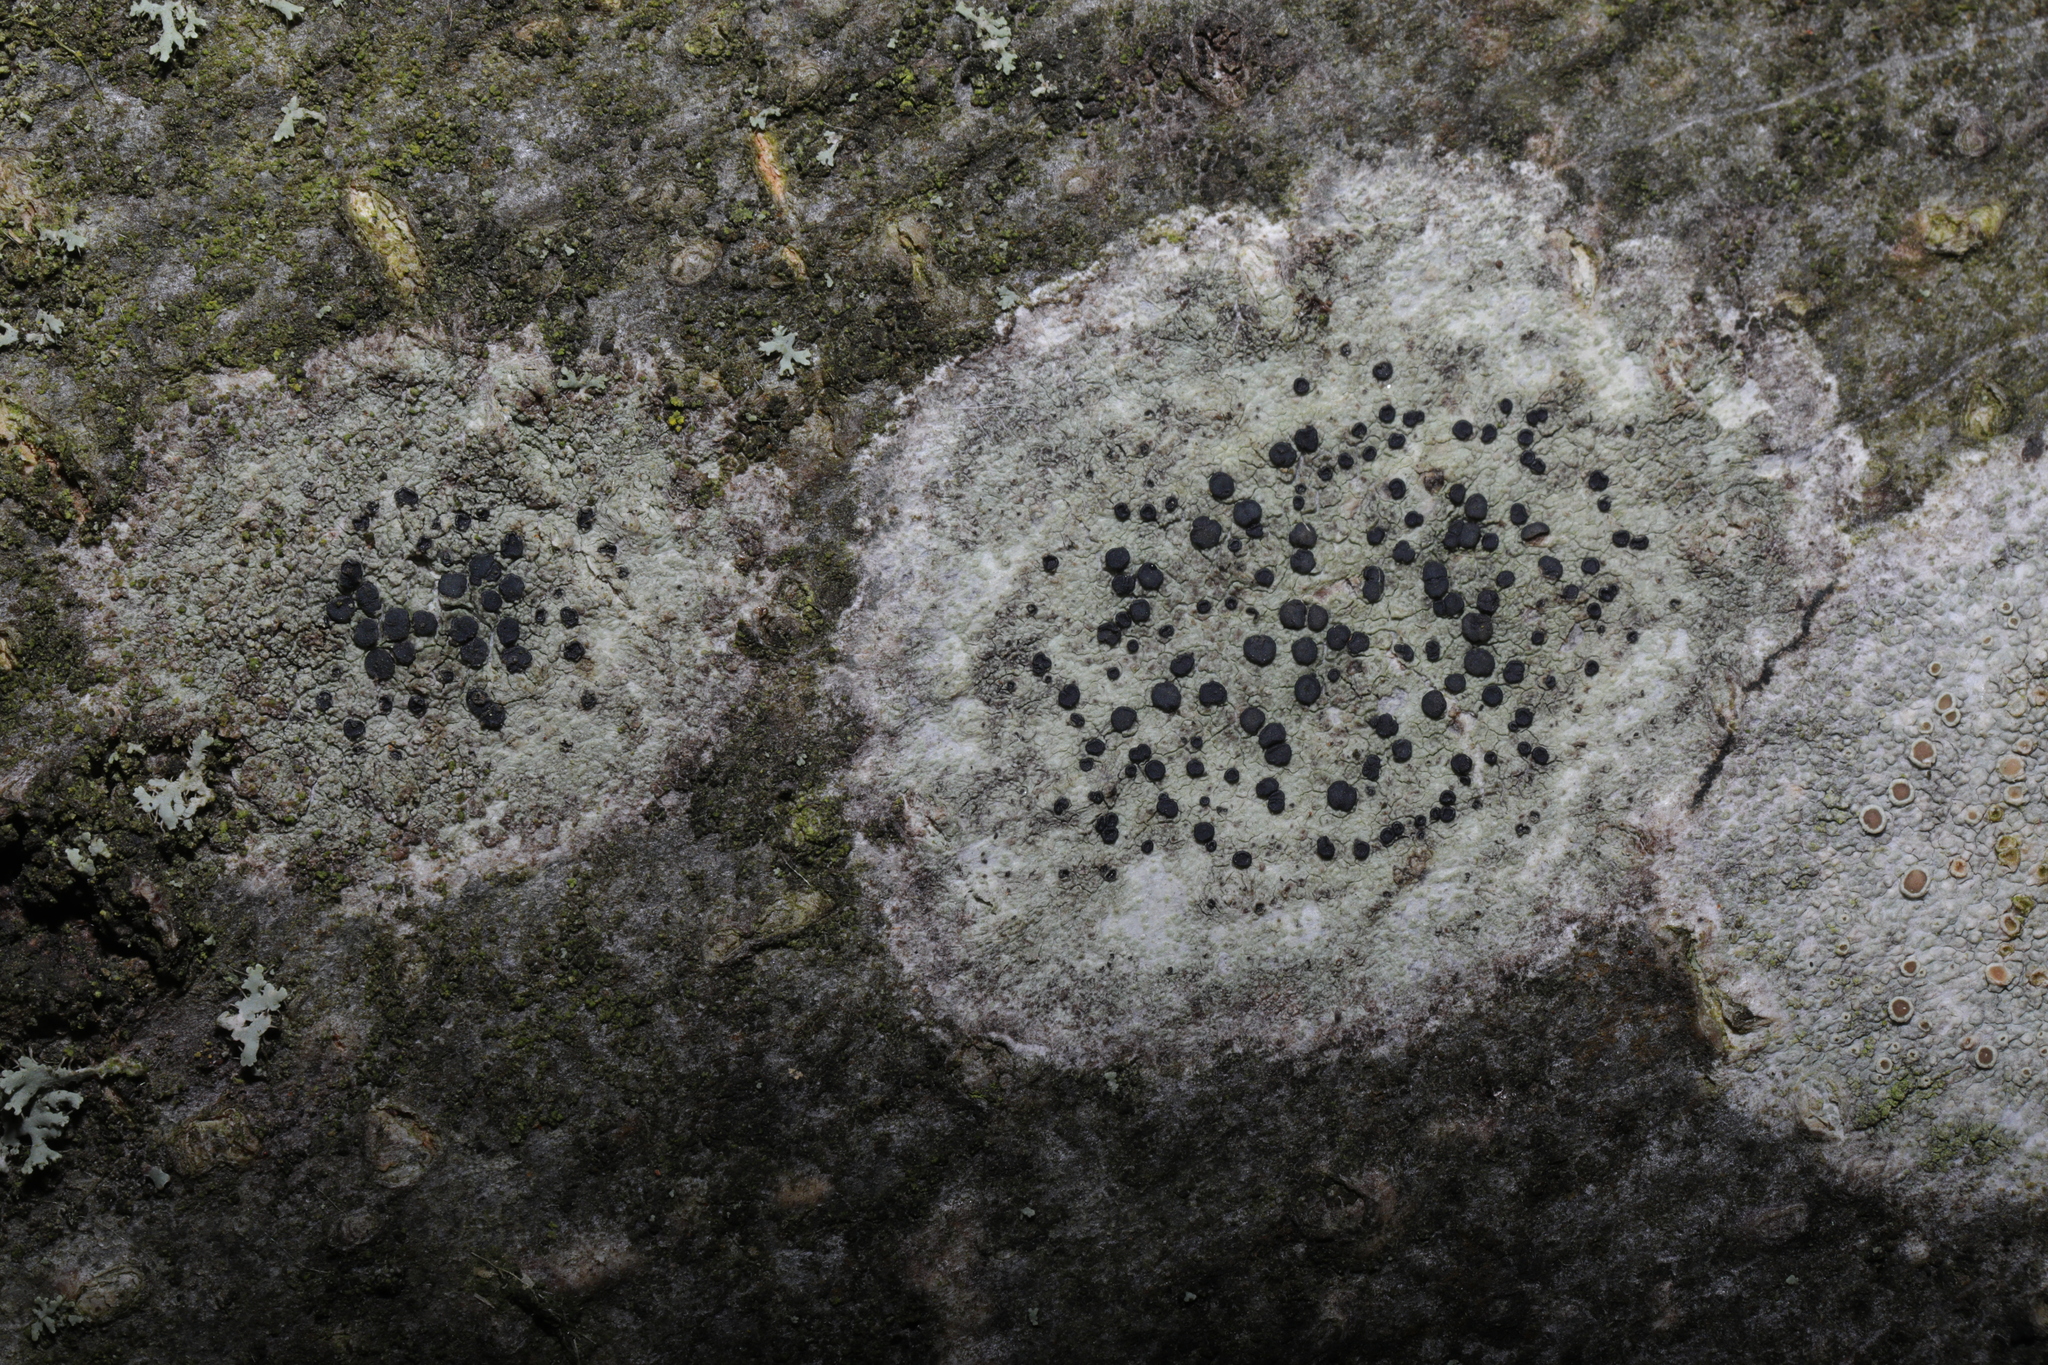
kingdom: Fungi
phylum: Ascomycota
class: Lecanoromycetes
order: Lecanorales
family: Lecanoraceae
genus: Lecidella
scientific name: Lecidella elaeochroma
